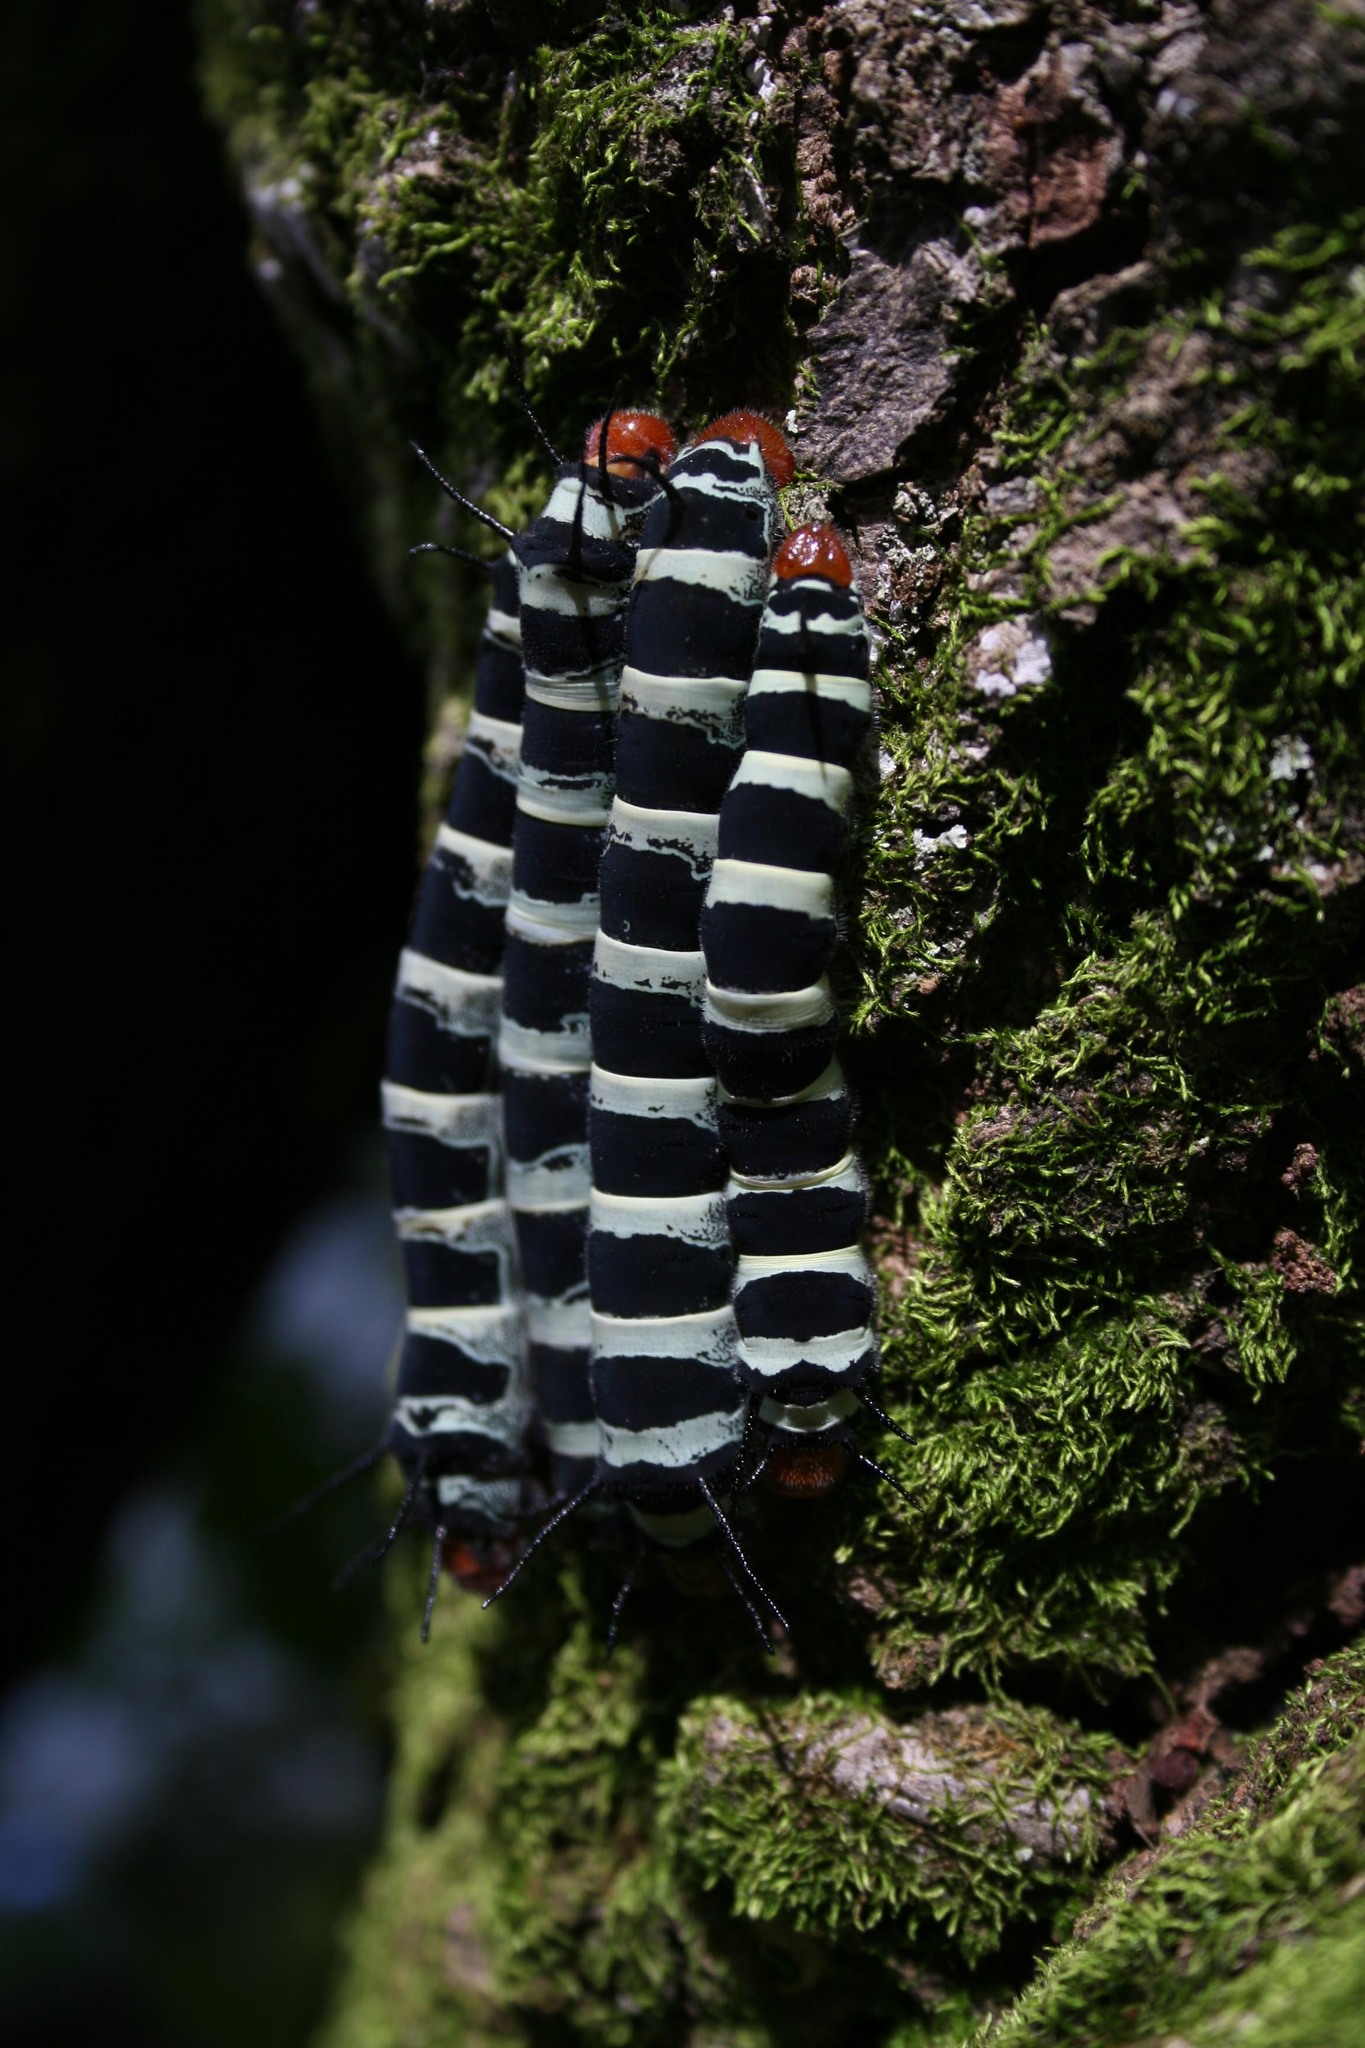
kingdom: Animalia
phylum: Arthropoda
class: Insecta
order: Lepidoptera
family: Saturniidae
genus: Arsenura
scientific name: Arsenura armida
